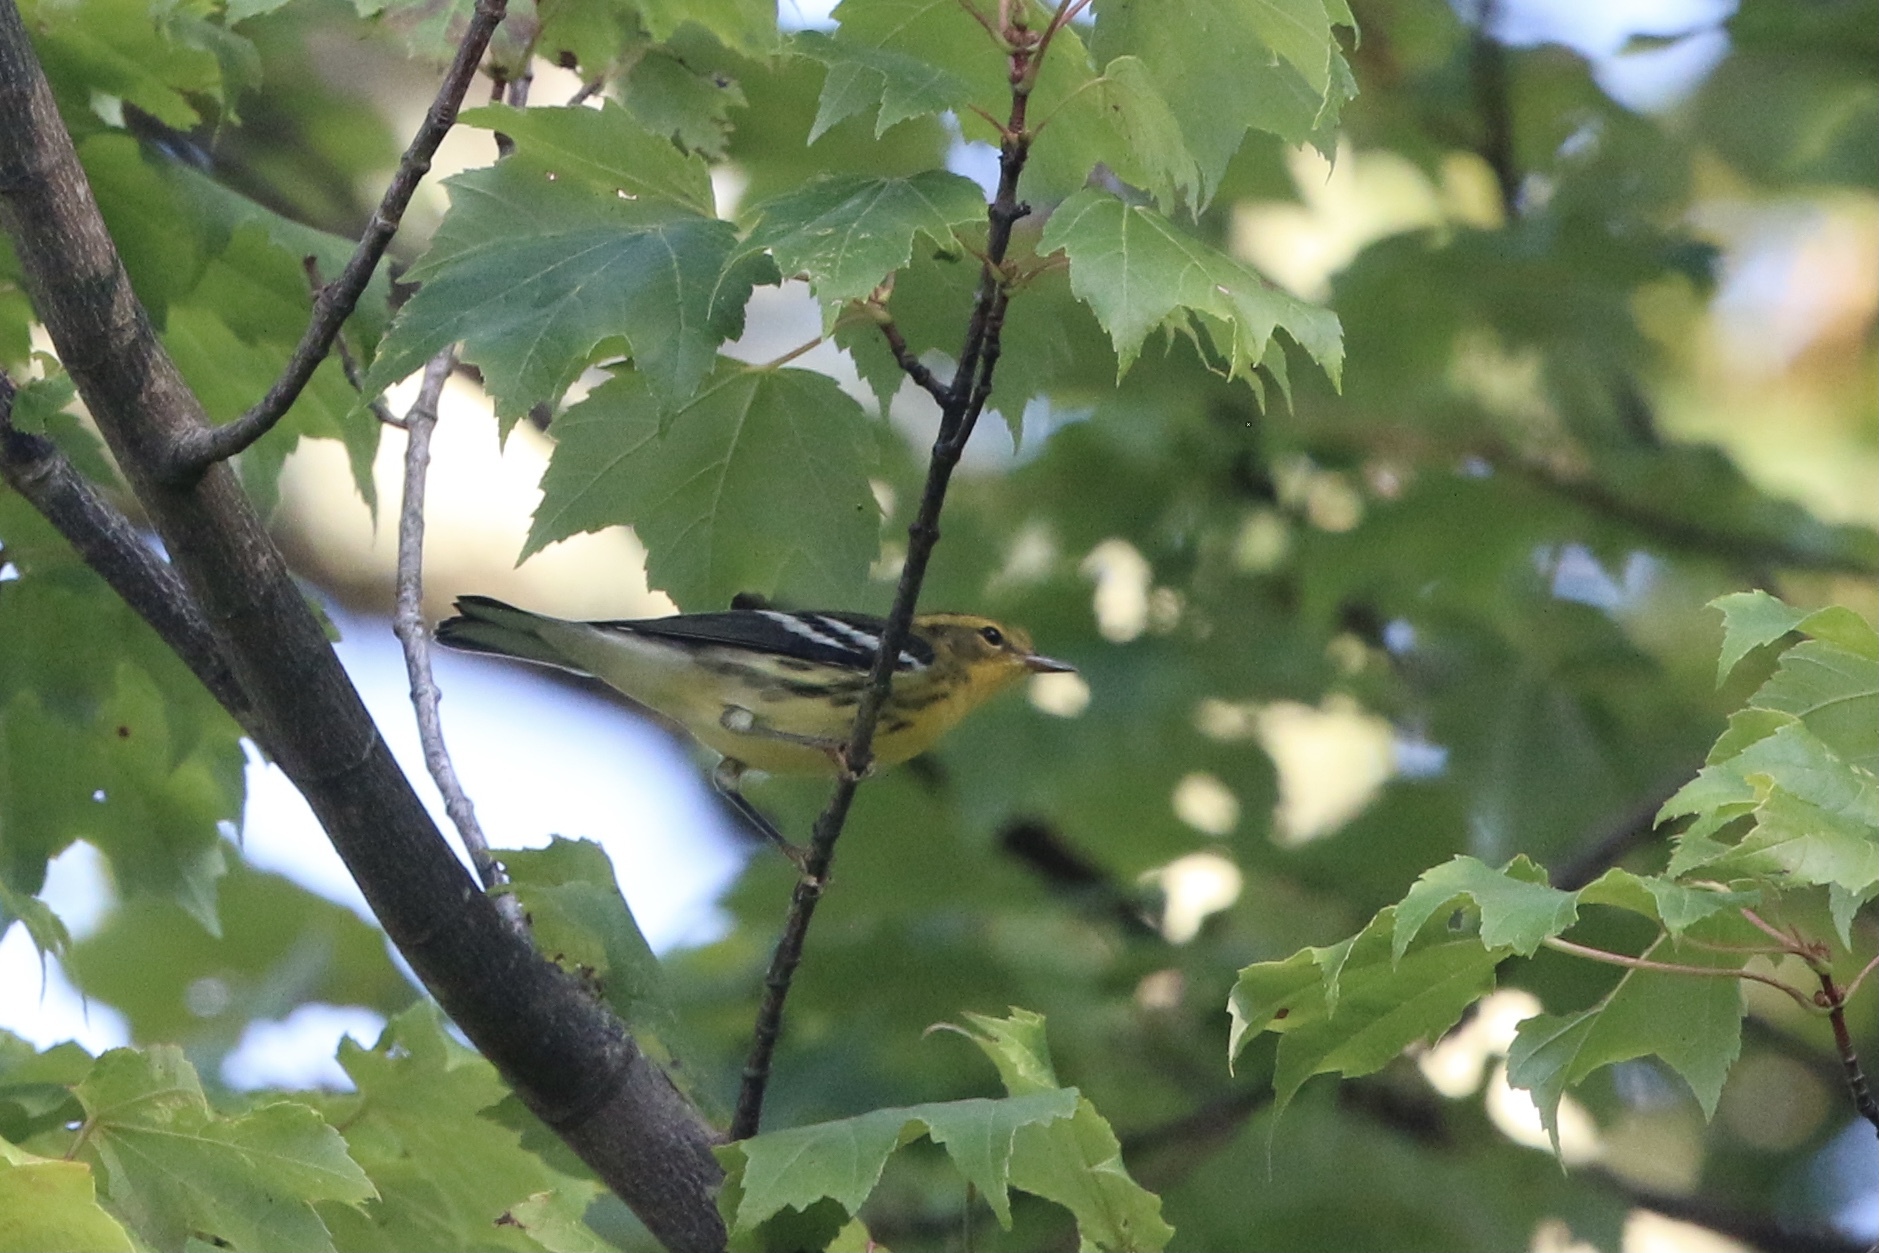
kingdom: Animalia
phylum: Chordata
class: Aves
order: Passeriformes
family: Parulidae
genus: Setophaga
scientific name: Setophaga fusca
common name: Blackburnian warbler
